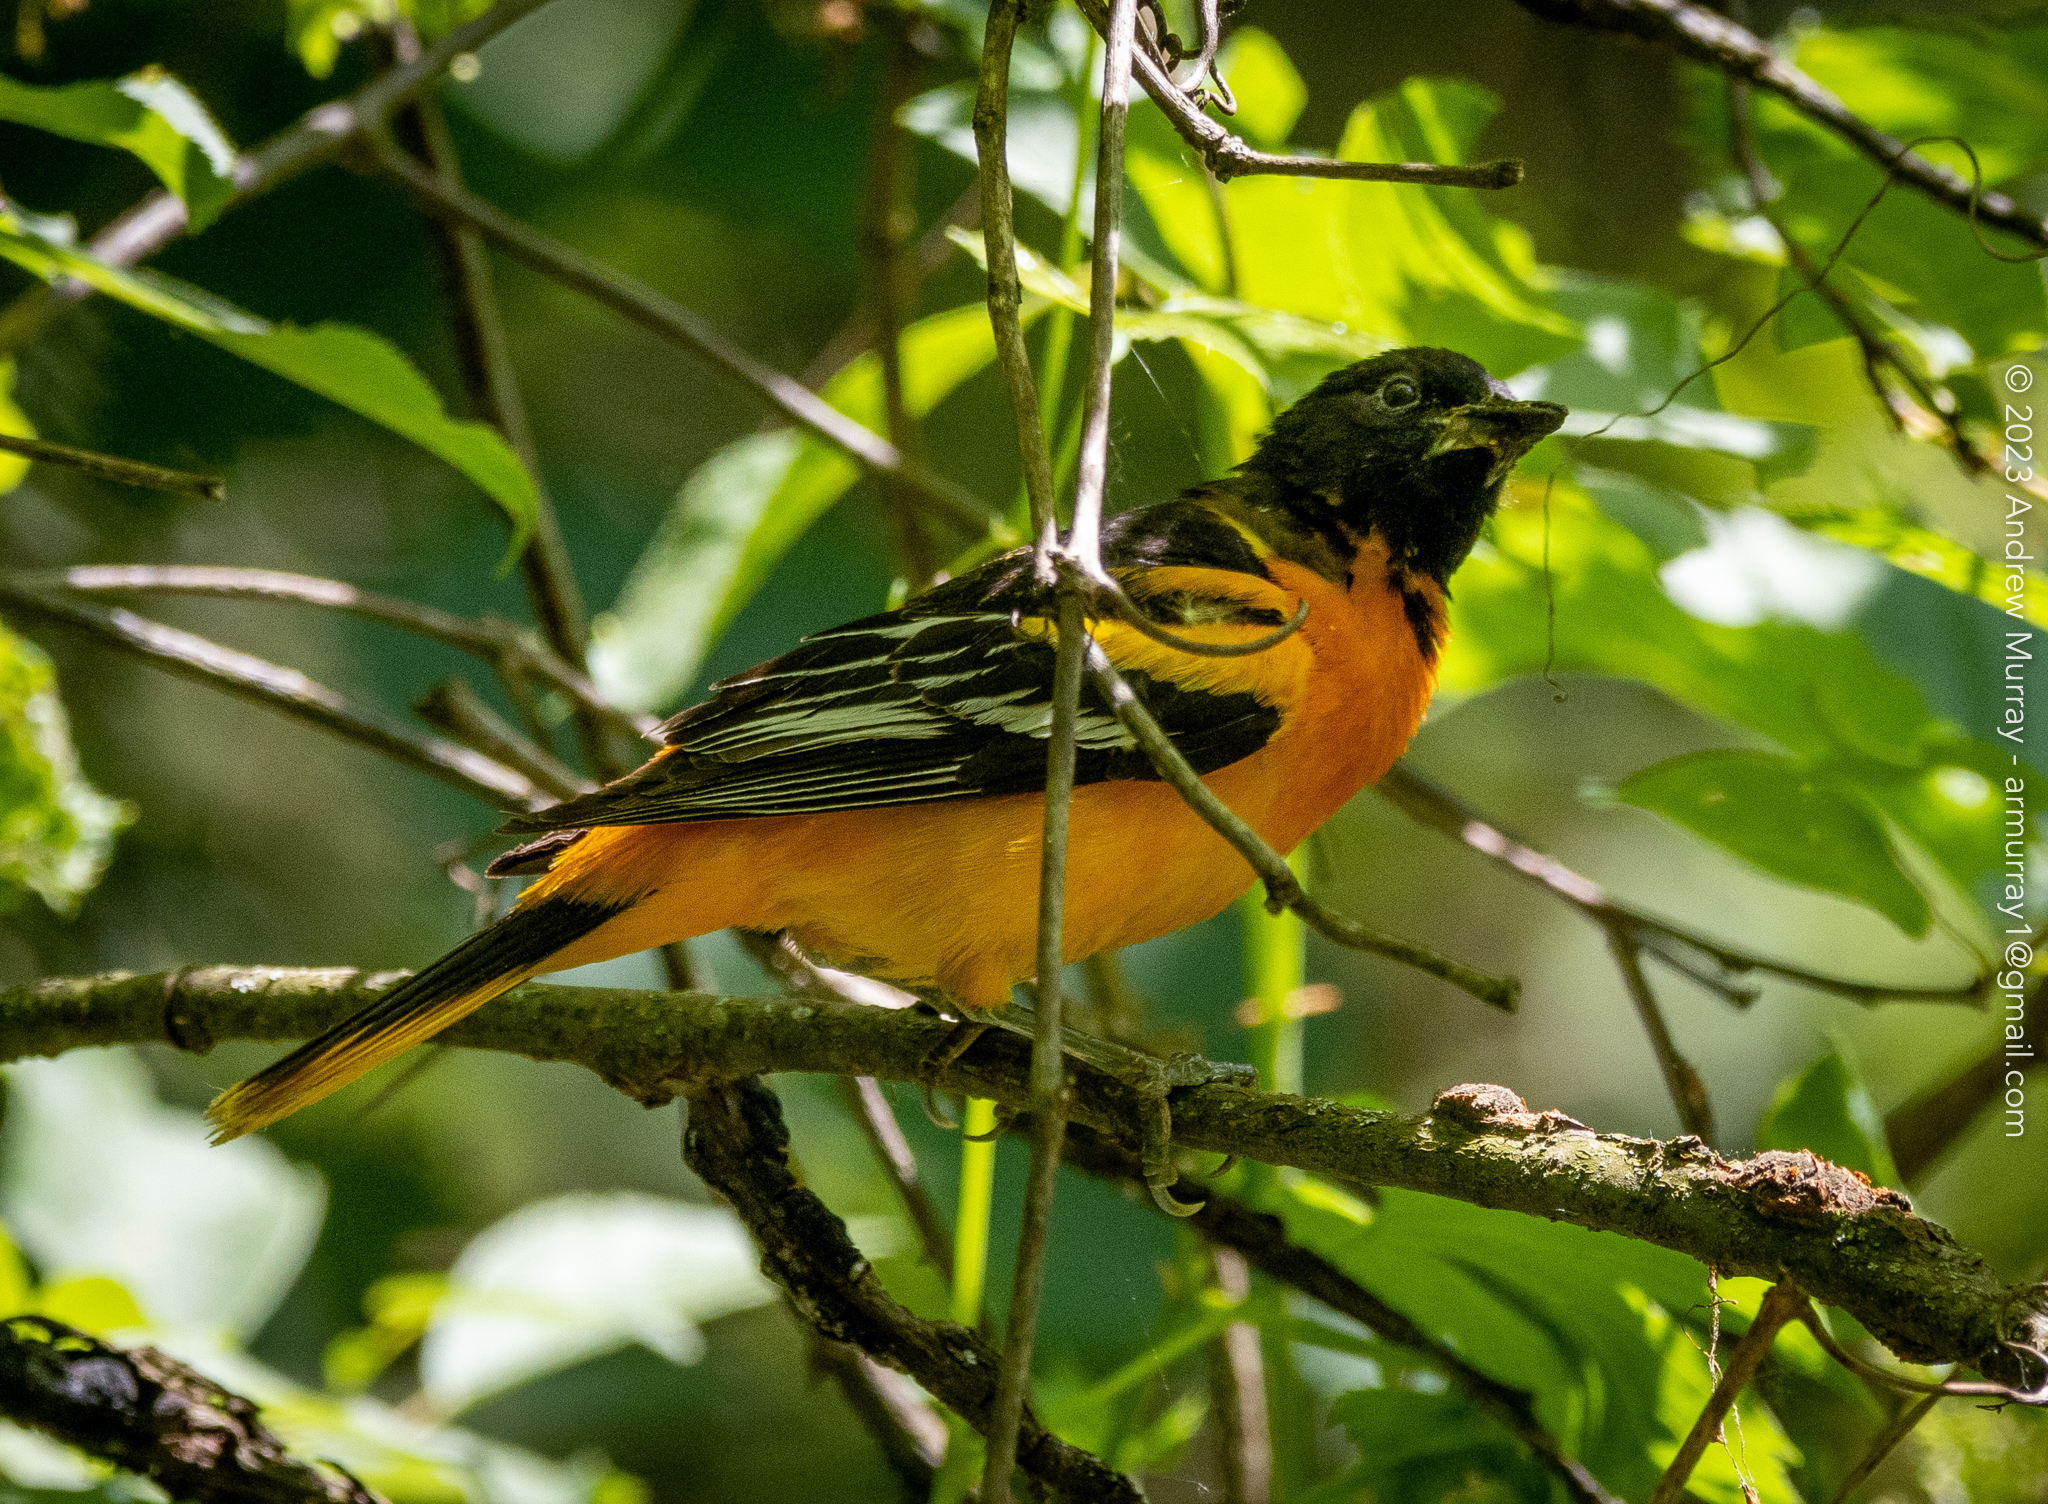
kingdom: Animalia
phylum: Chordata
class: Aves
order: Passeriformes
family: Icteridae
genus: Icterus
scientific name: Icterus galbula
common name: Baltimore oriole
